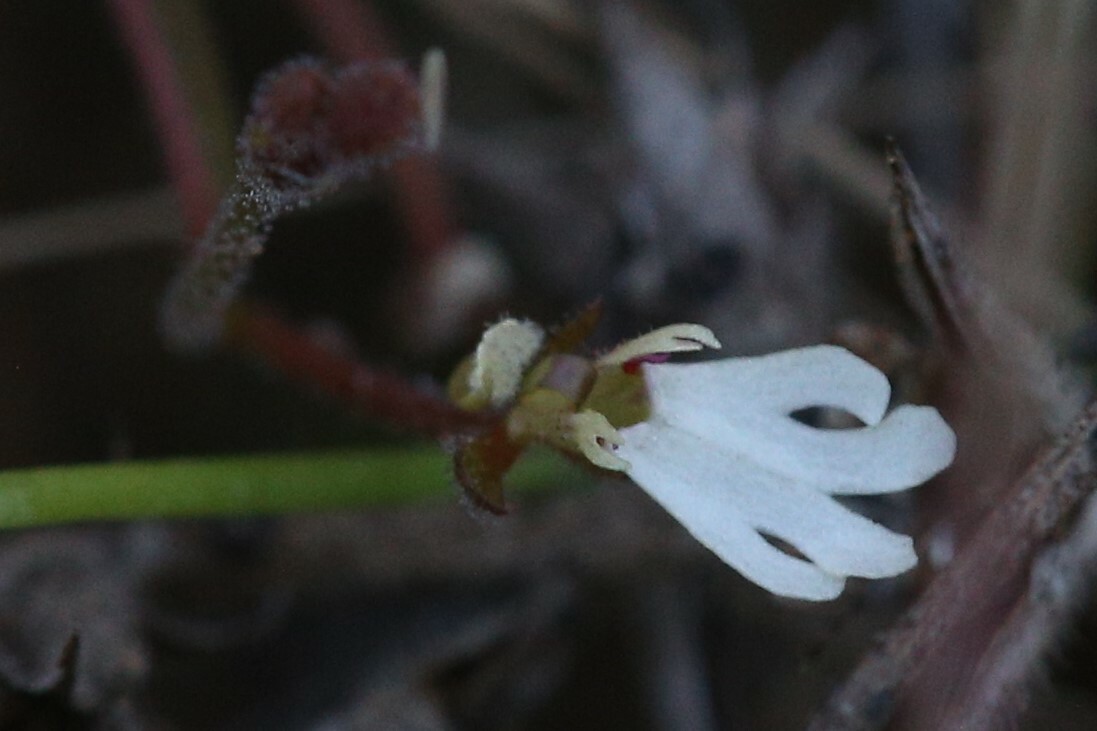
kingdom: Plantae
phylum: Tracheophyta
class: Magnoliopsida
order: Asterales
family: Stylidiaceae
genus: Stylidium
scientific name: Stylidium schizanthum
